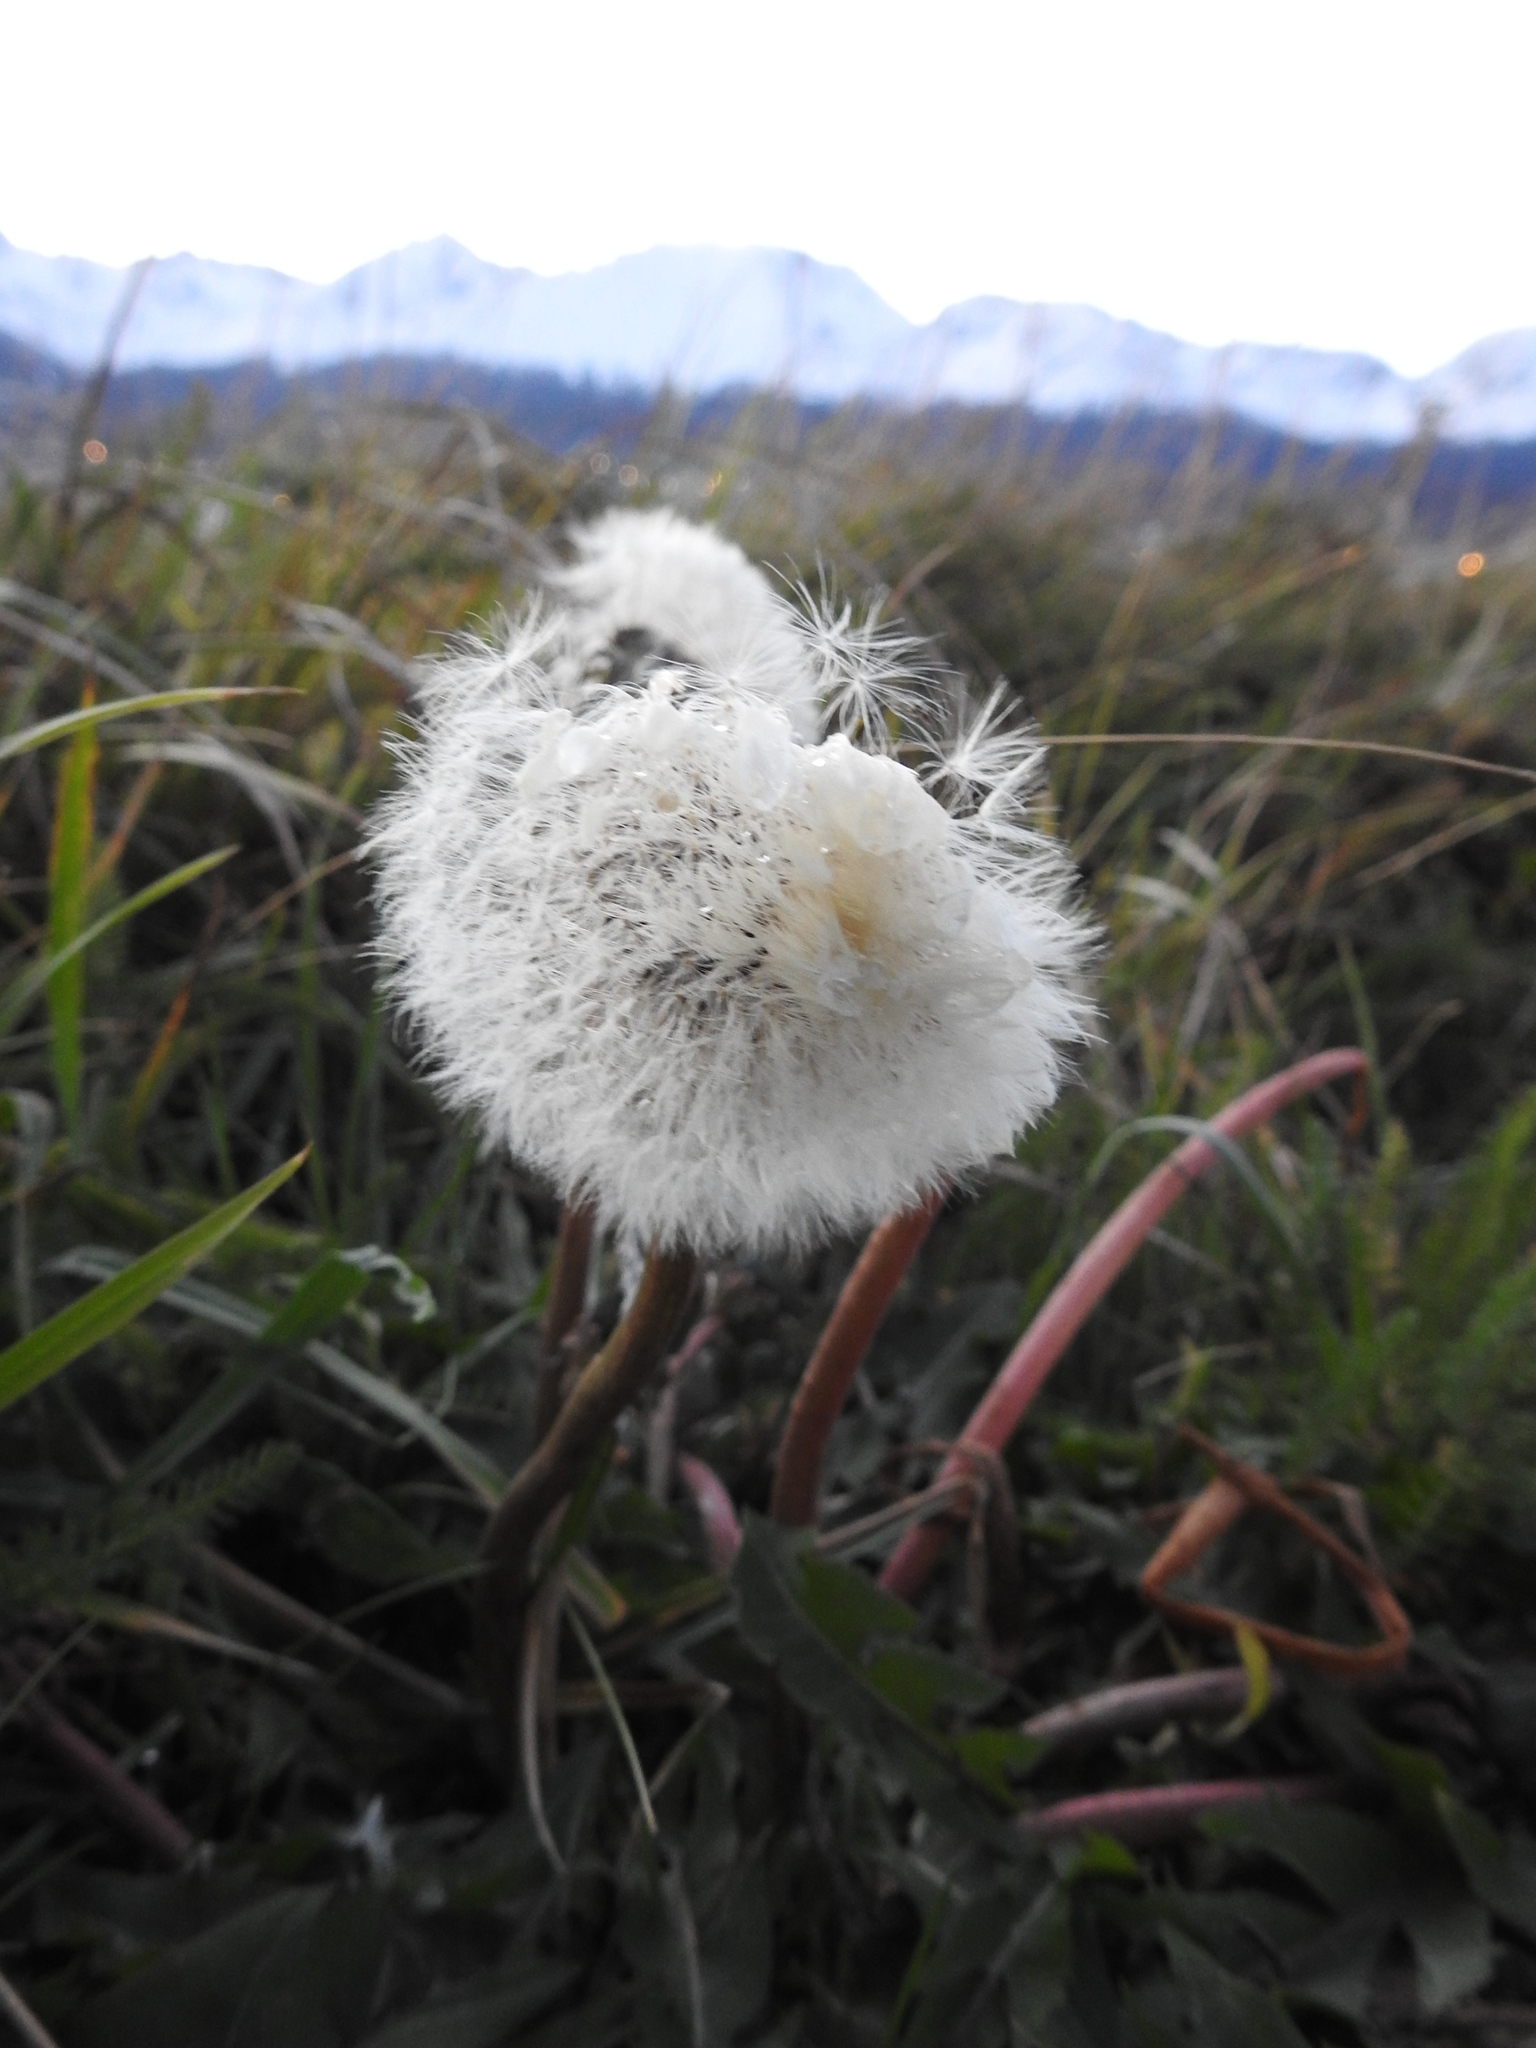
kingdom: Plantae
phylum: Tracheophyta
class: Magnoliopsida
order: Asterales
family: Asteraceae
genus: Taraxacum
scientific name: Taraxacum officinale
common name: Common dandelion
